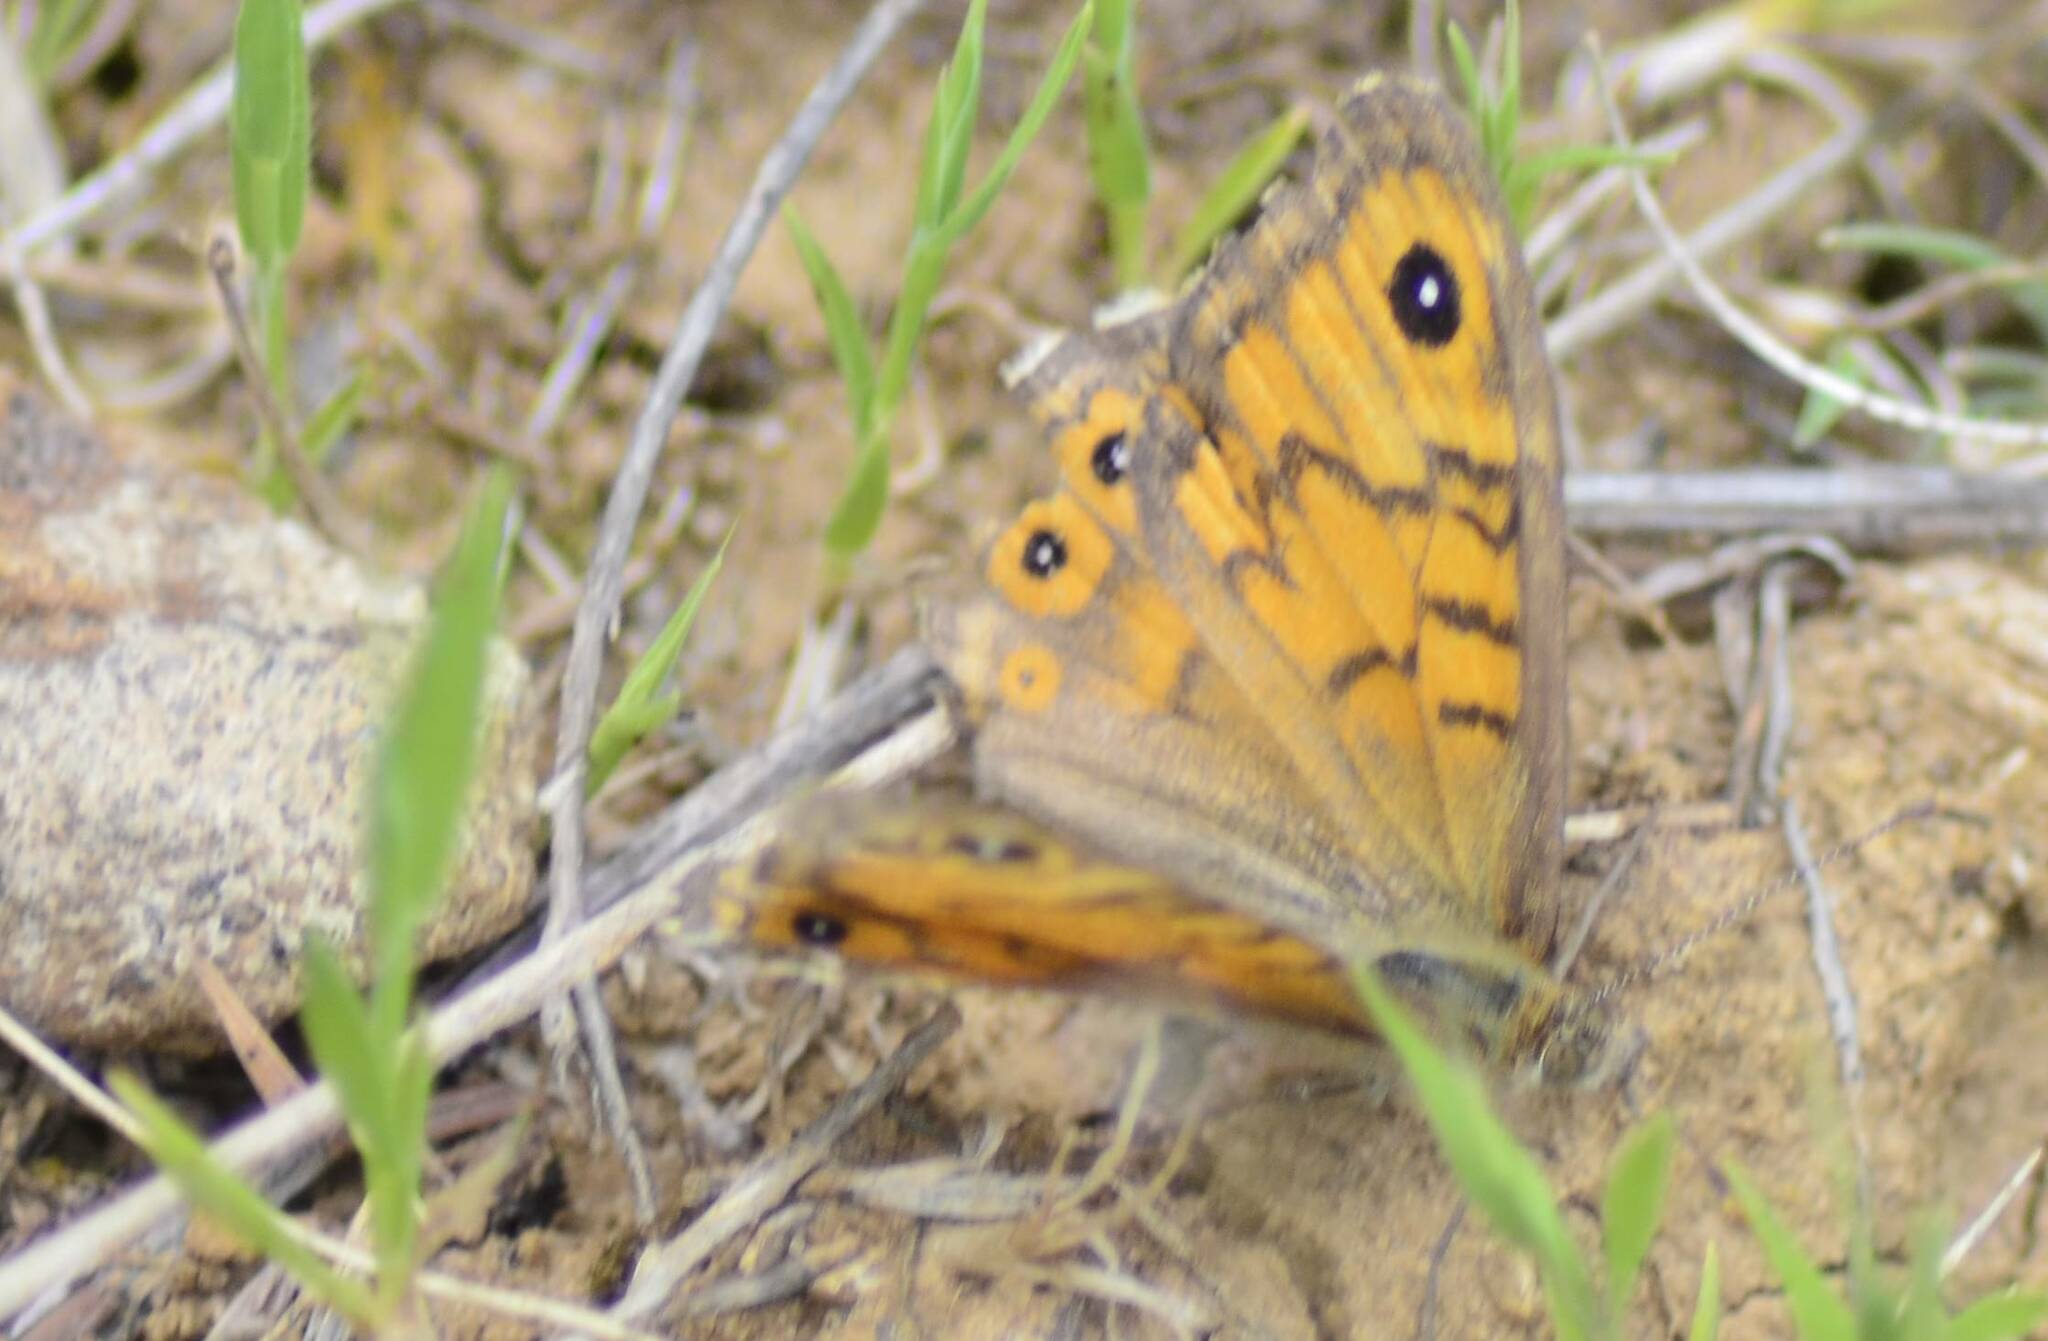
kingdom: Animalia
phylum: Arthropoda
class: Insecta
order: Lepidoptera
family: Nymphalidae
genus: Pararge
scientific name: Pararge Lasiommata megera
